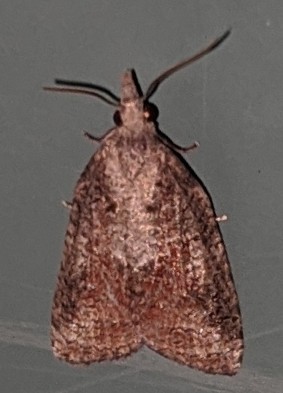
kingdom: Animalia
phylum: Arthropoda
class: Insecta
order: Lepidoptera
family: Tortricidae
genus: Platynota
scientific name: Platynota idaeusalis
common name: Tufted apple bud moth
